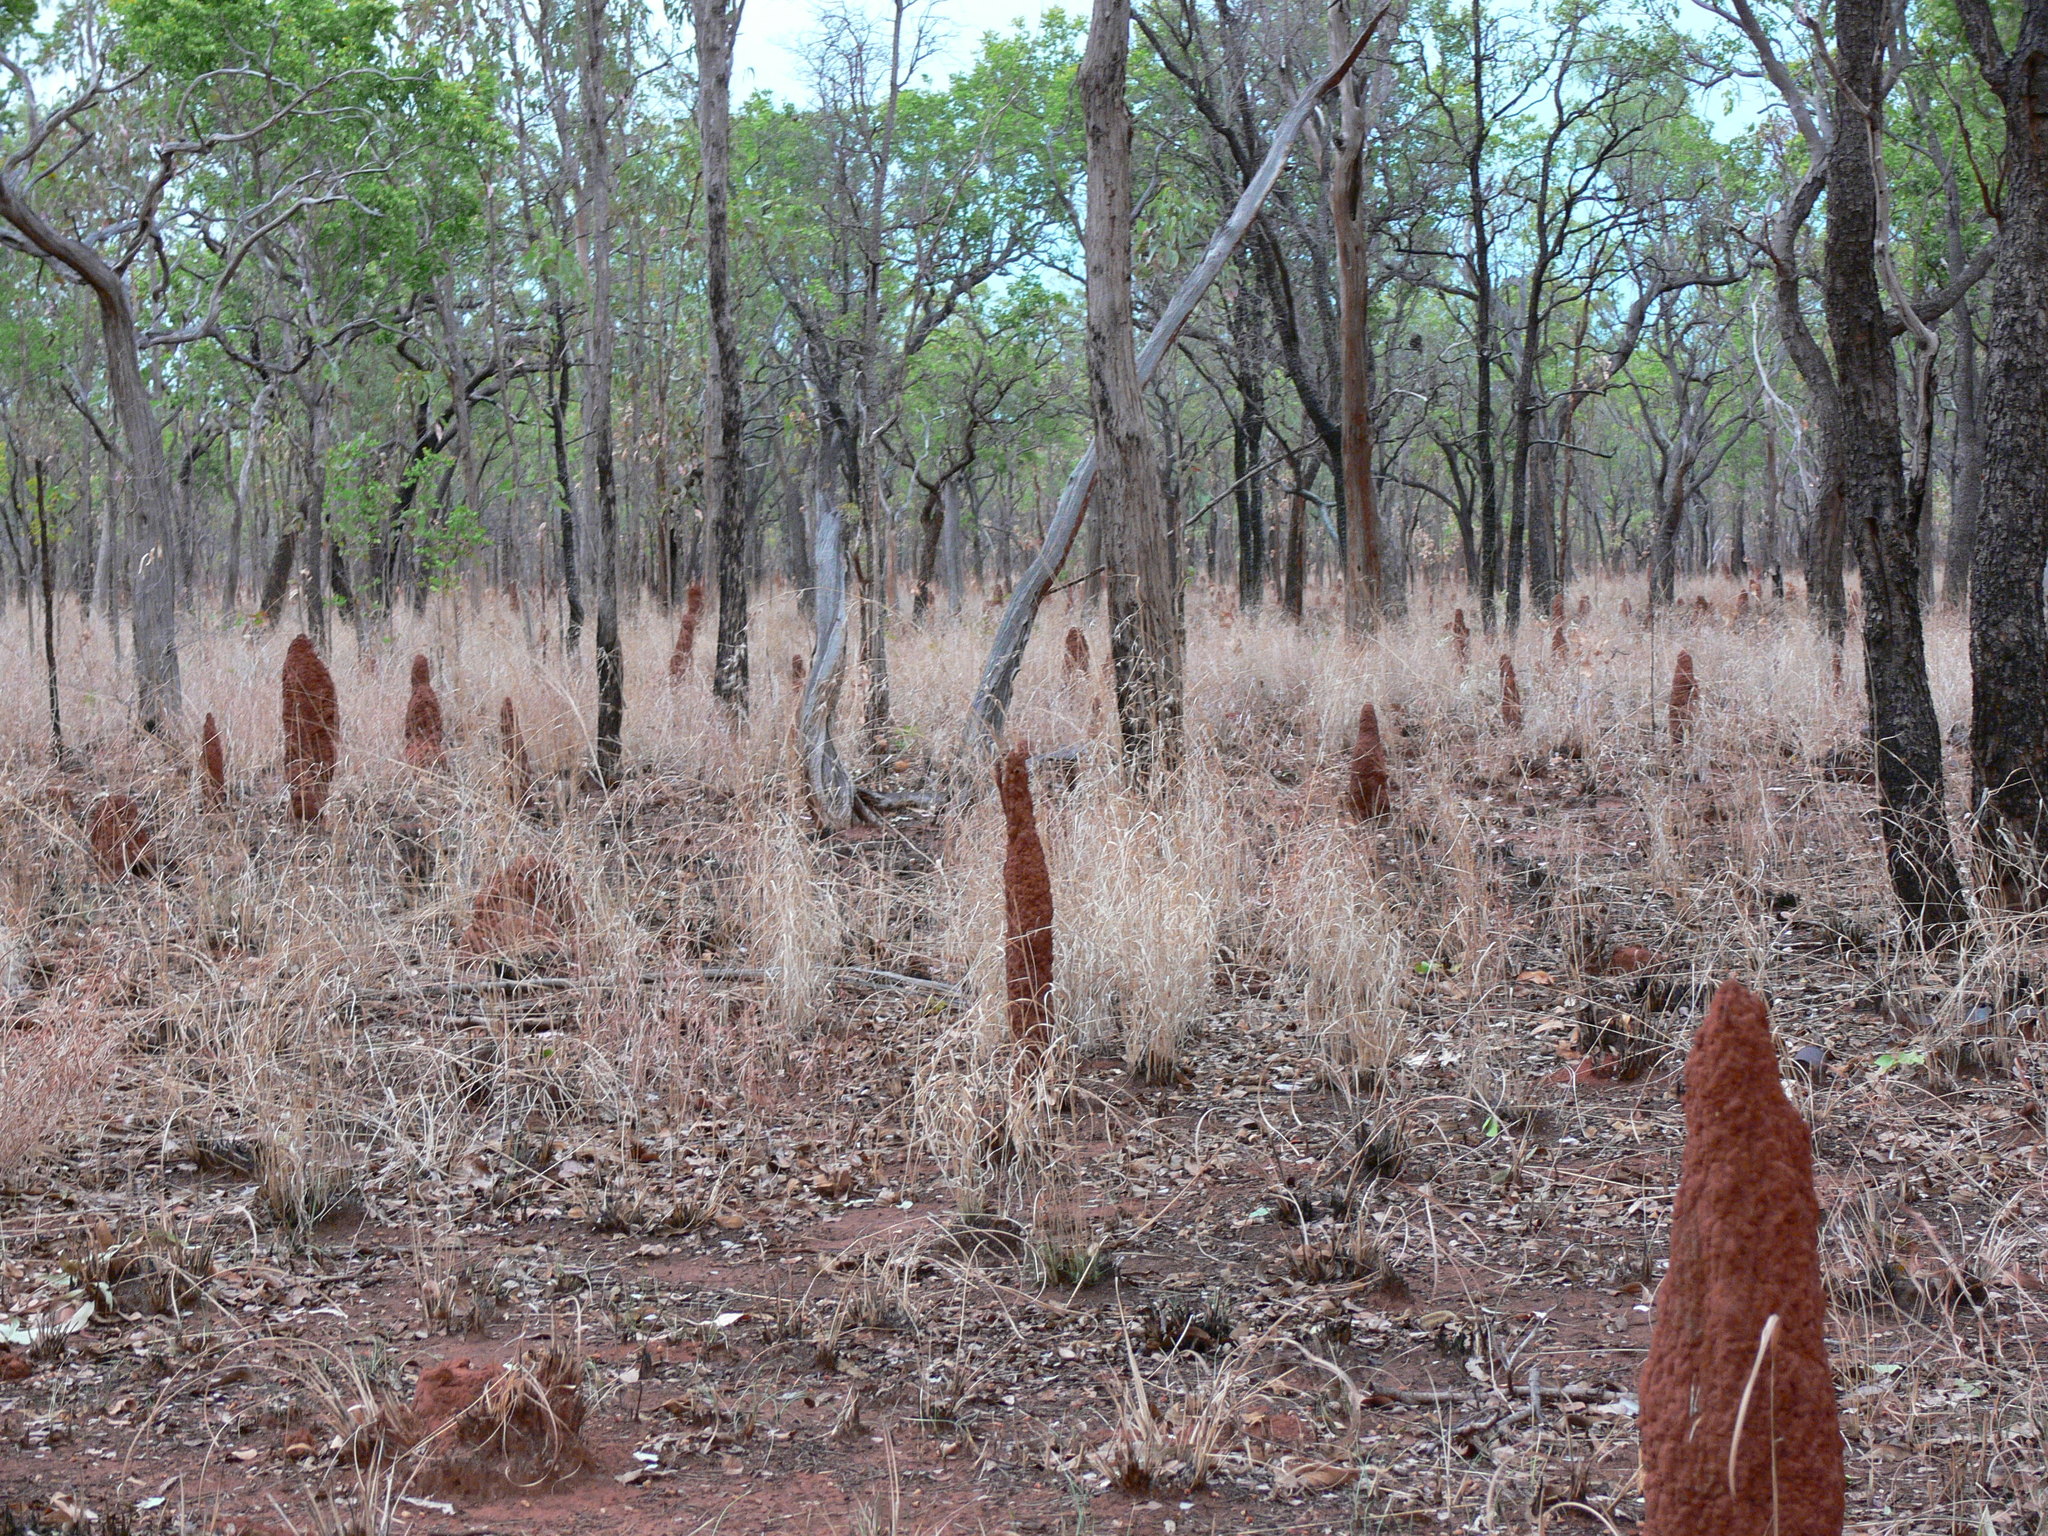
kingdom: Animalia
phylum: Arthropoda
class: Insecta
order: Blattodea
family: Termitidae
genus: Microcerotermes
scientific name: Microcerotermes nervosus
